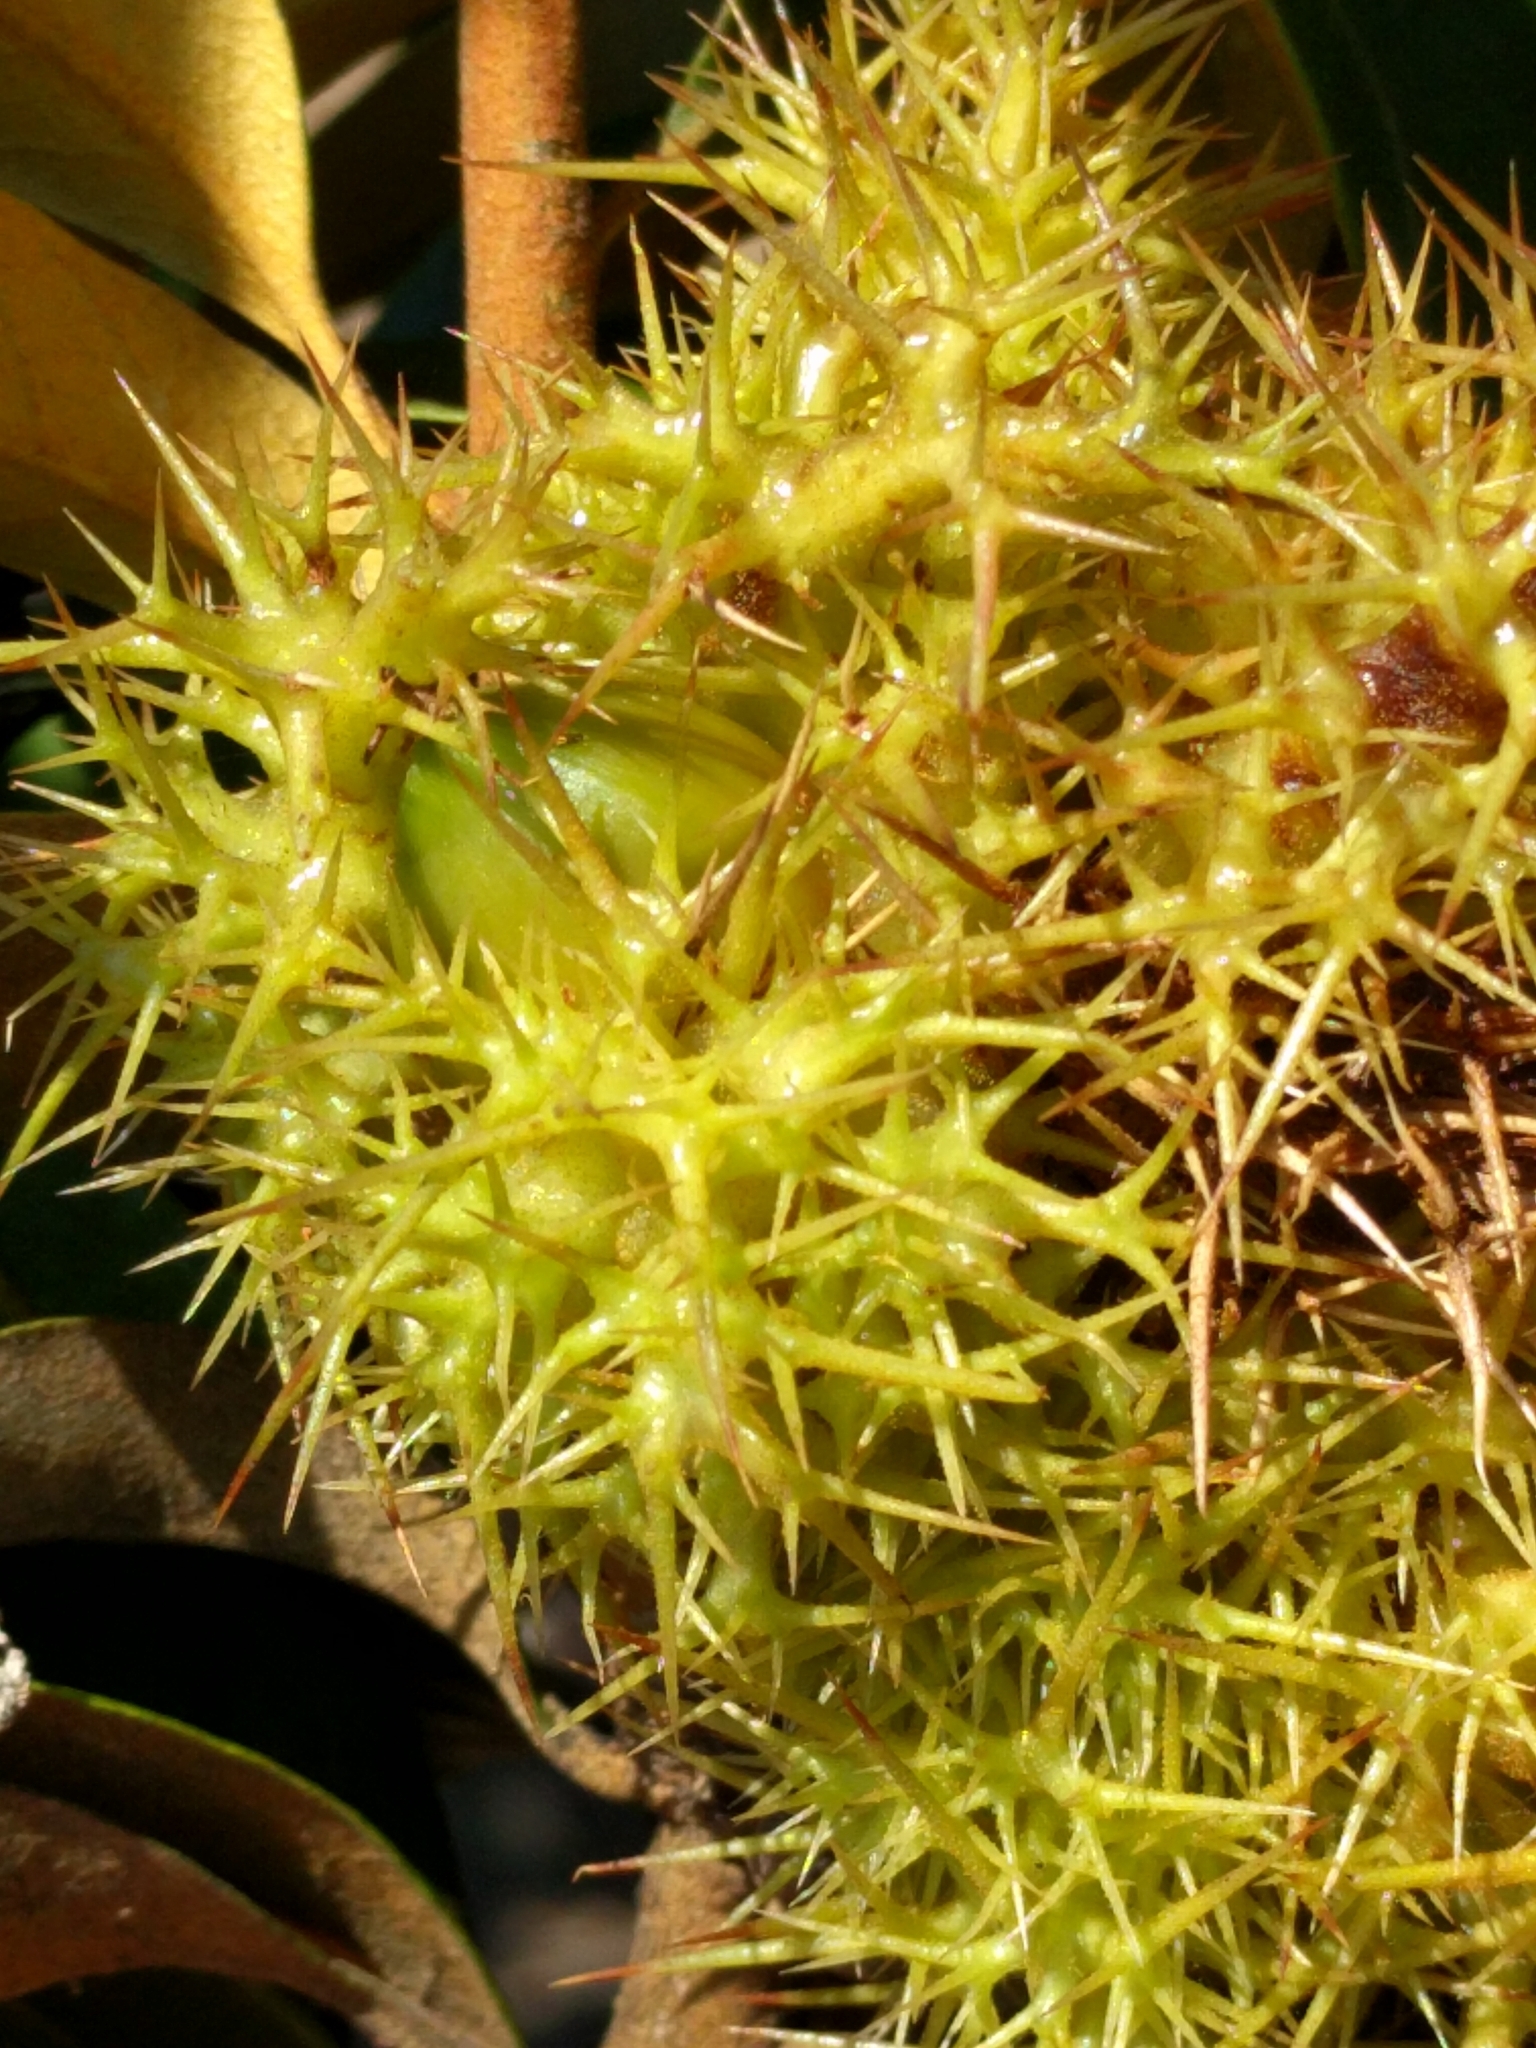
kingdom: Plantae
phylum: Tracheophyta
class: Magnoliopsida
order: Fagales
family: Fagaceae
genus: Chrysolepis
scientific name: Chrysolepis chrysophylla
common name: Giant chinquapin
